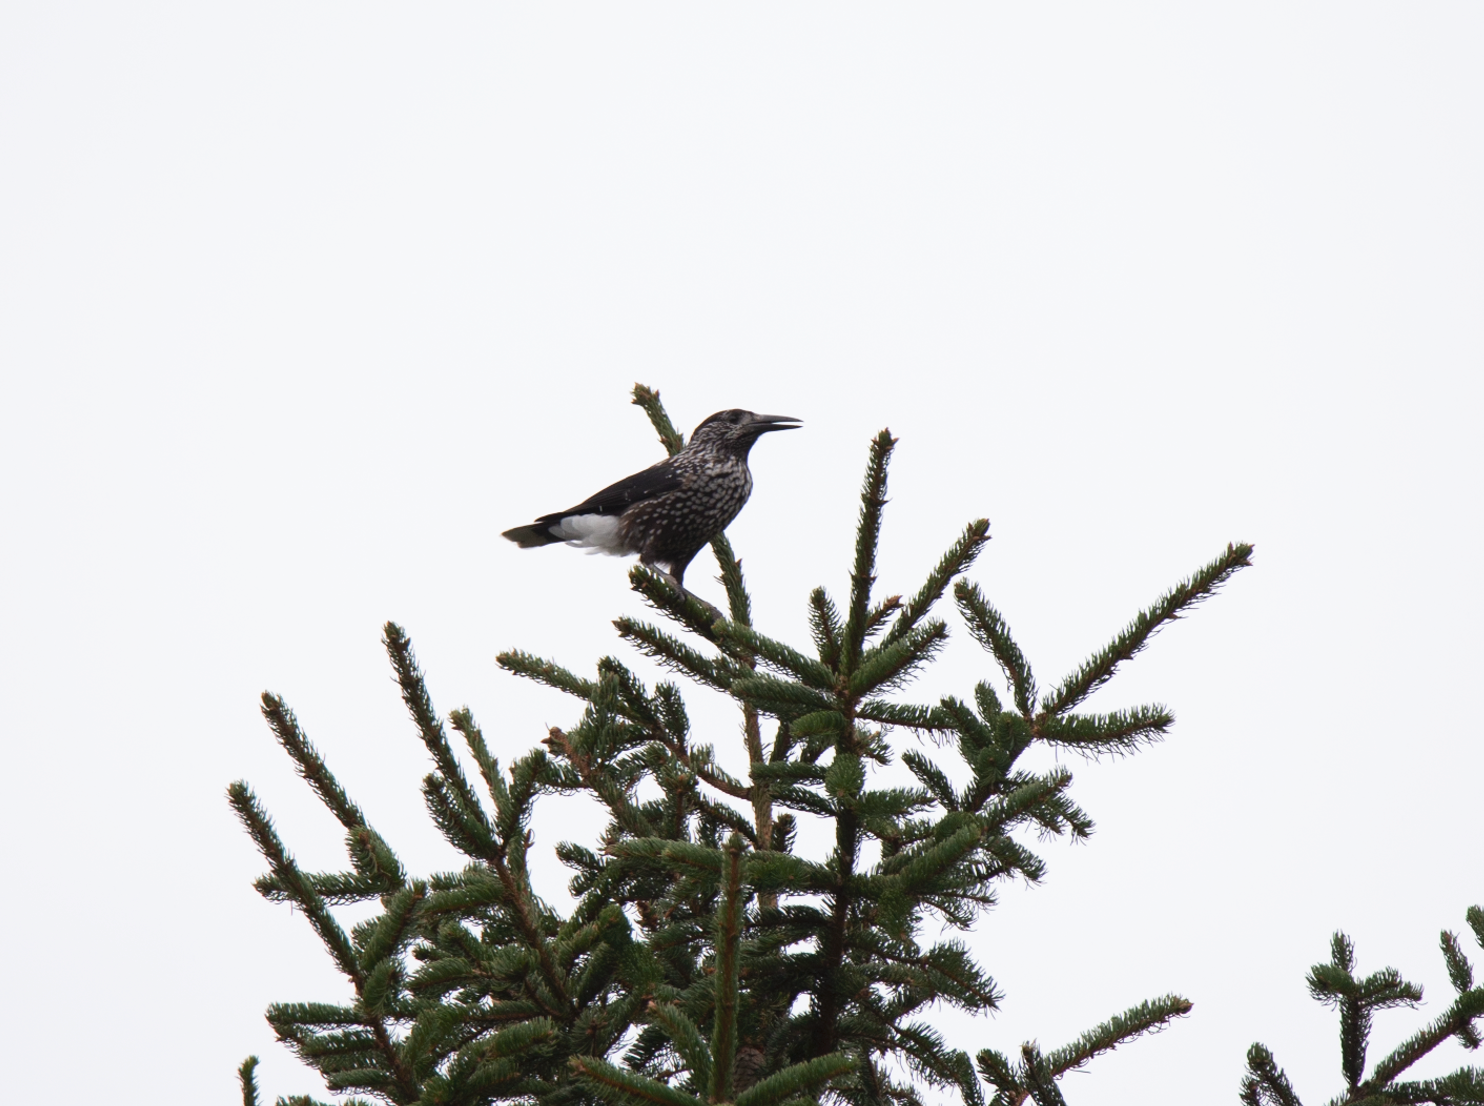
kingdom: Animalia
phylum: Chordata
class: Aves
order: Passeriformes
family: Corvidae
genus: Nucifraga
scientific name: Nucifraga caryocatactes
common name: Spotted nutcracker
